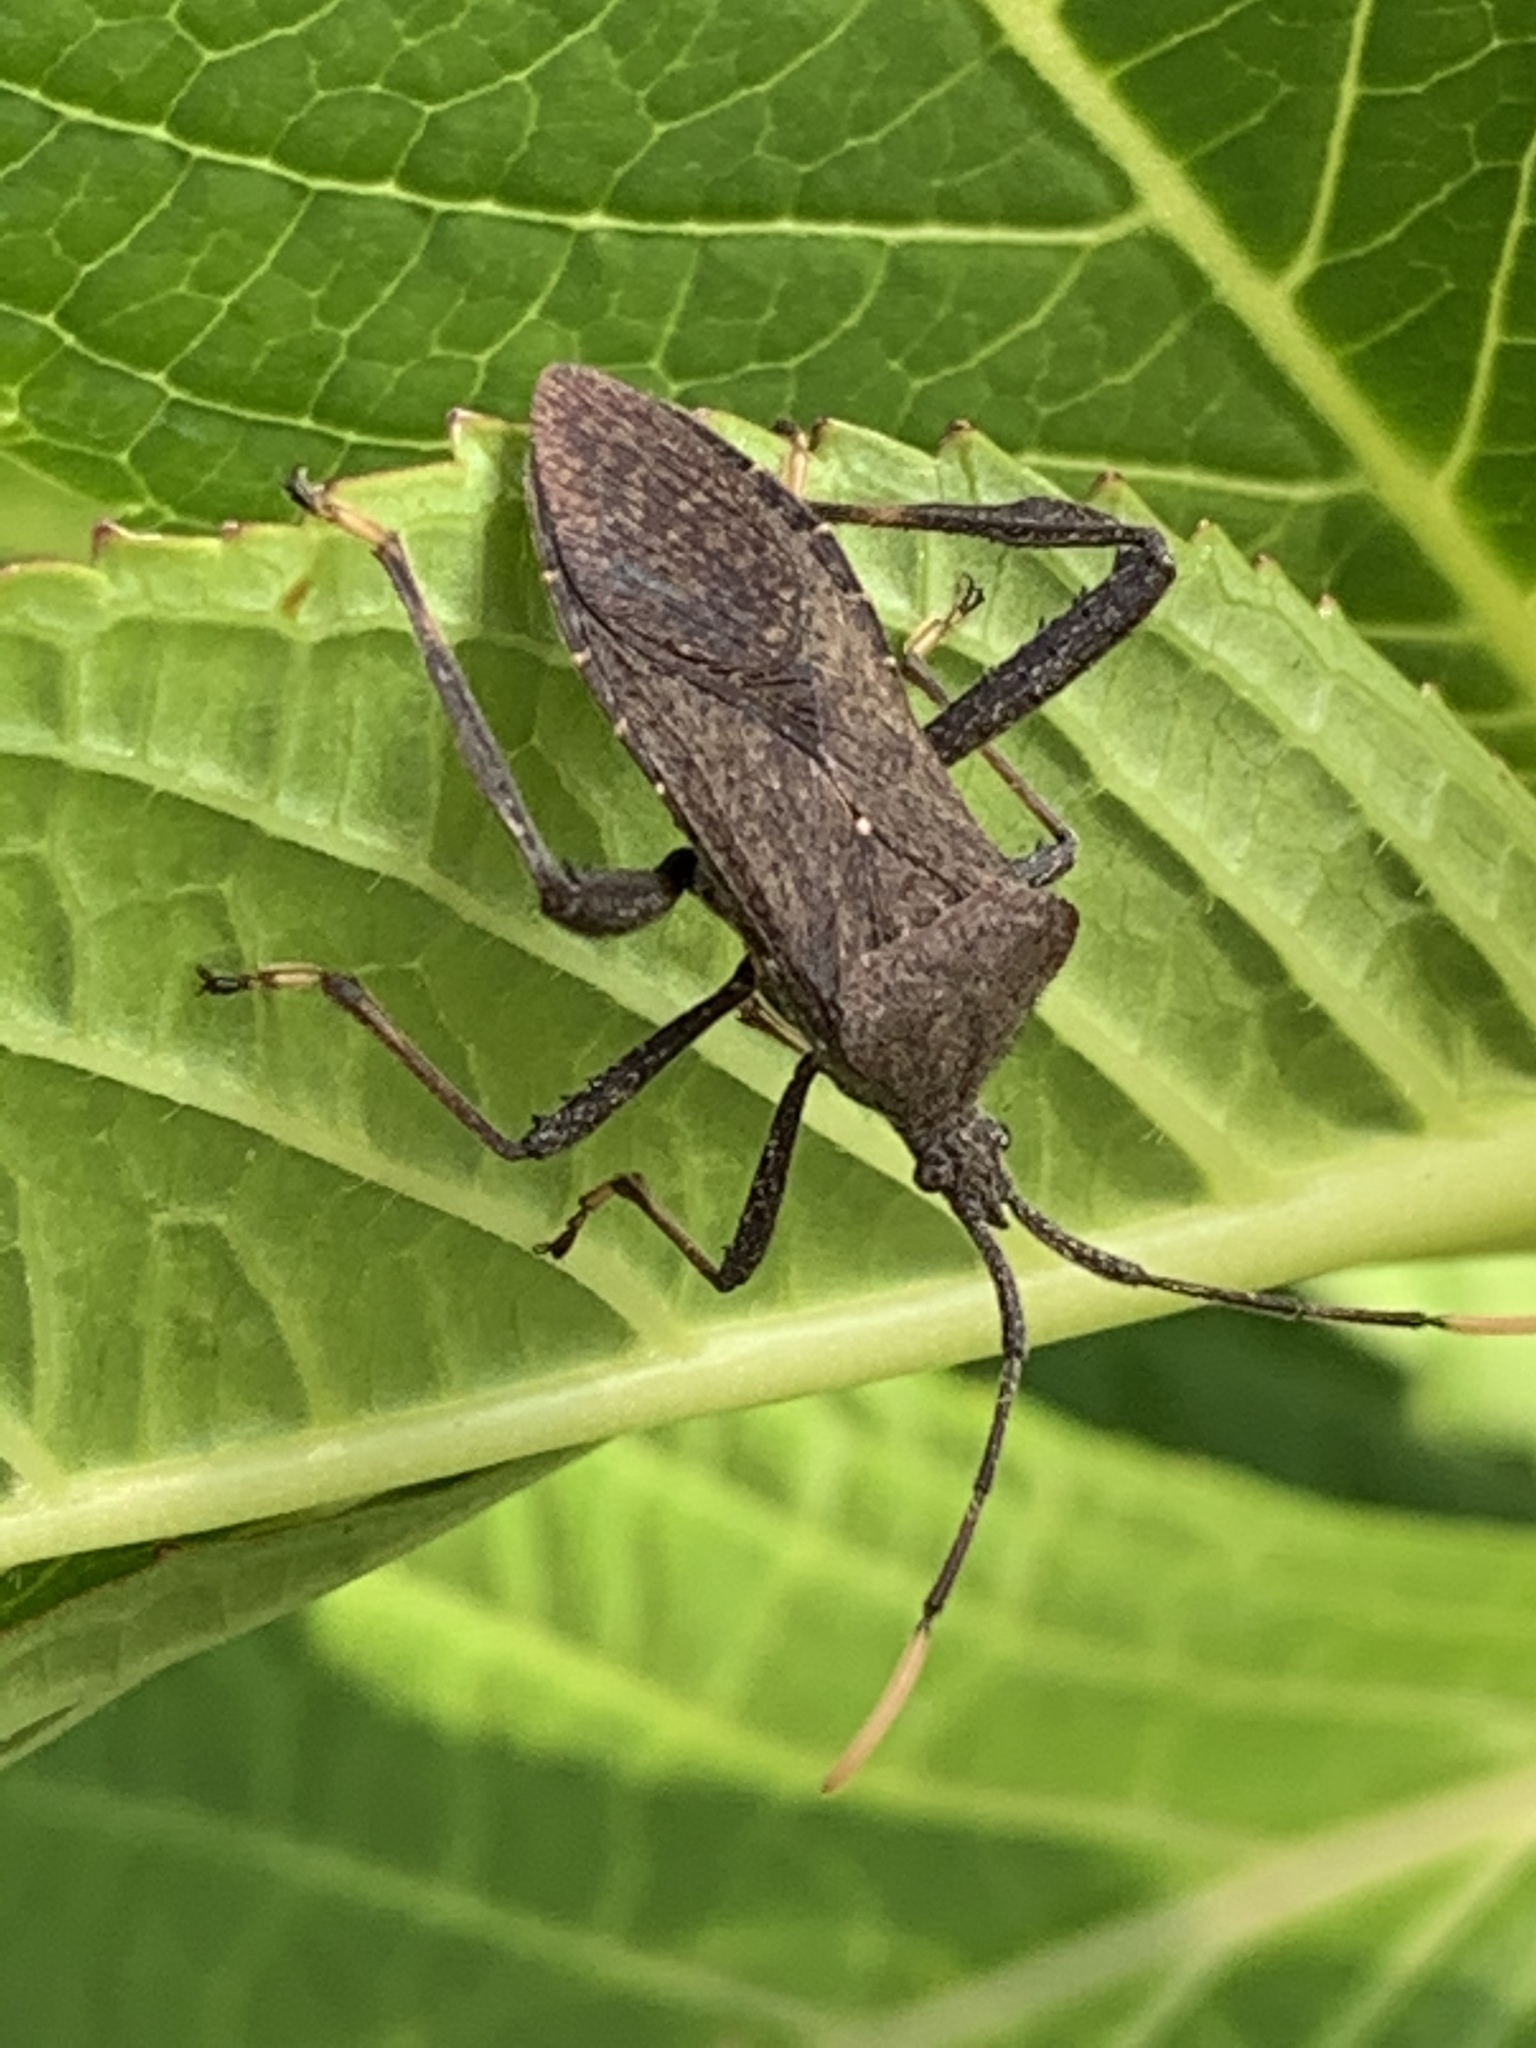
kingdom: Animalia
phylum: Arthropoda
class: Insecta
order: Hemiptera
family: Coreidae
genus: Acanthocephala
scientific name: Acanthocephala terminalis
